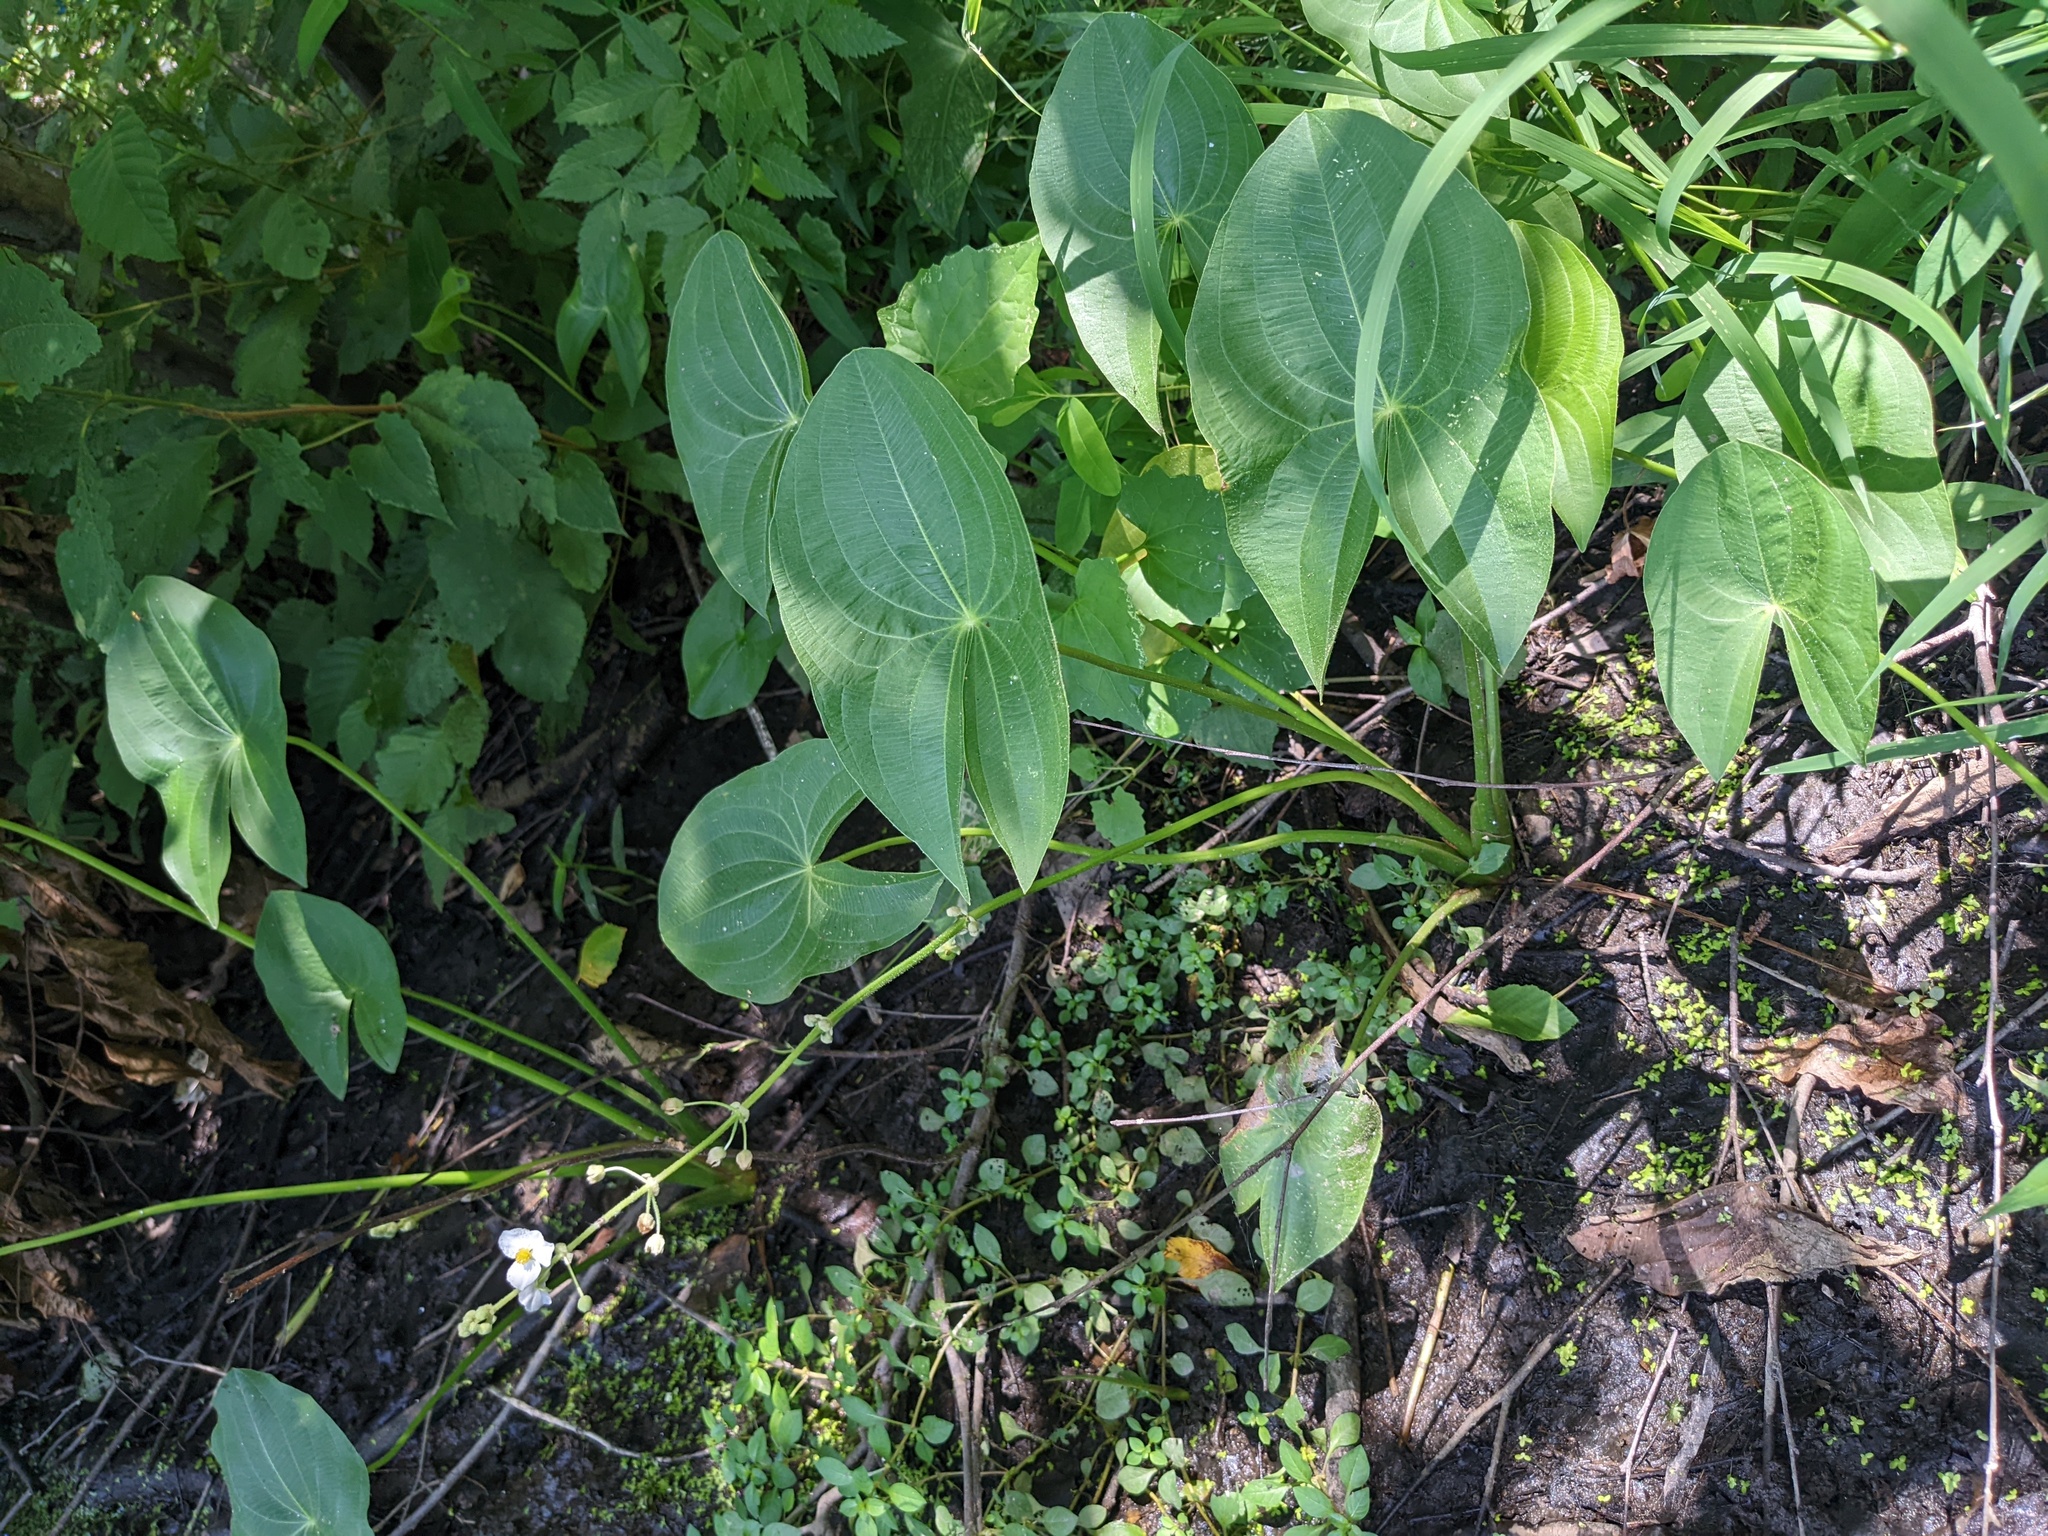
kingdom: Plantae
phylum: Tracheophyta
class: Liliopsida
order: Alismatales
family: Alismataceae
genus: Sagittaria
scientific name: Sagittaria latifolia
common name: Duck-potato
